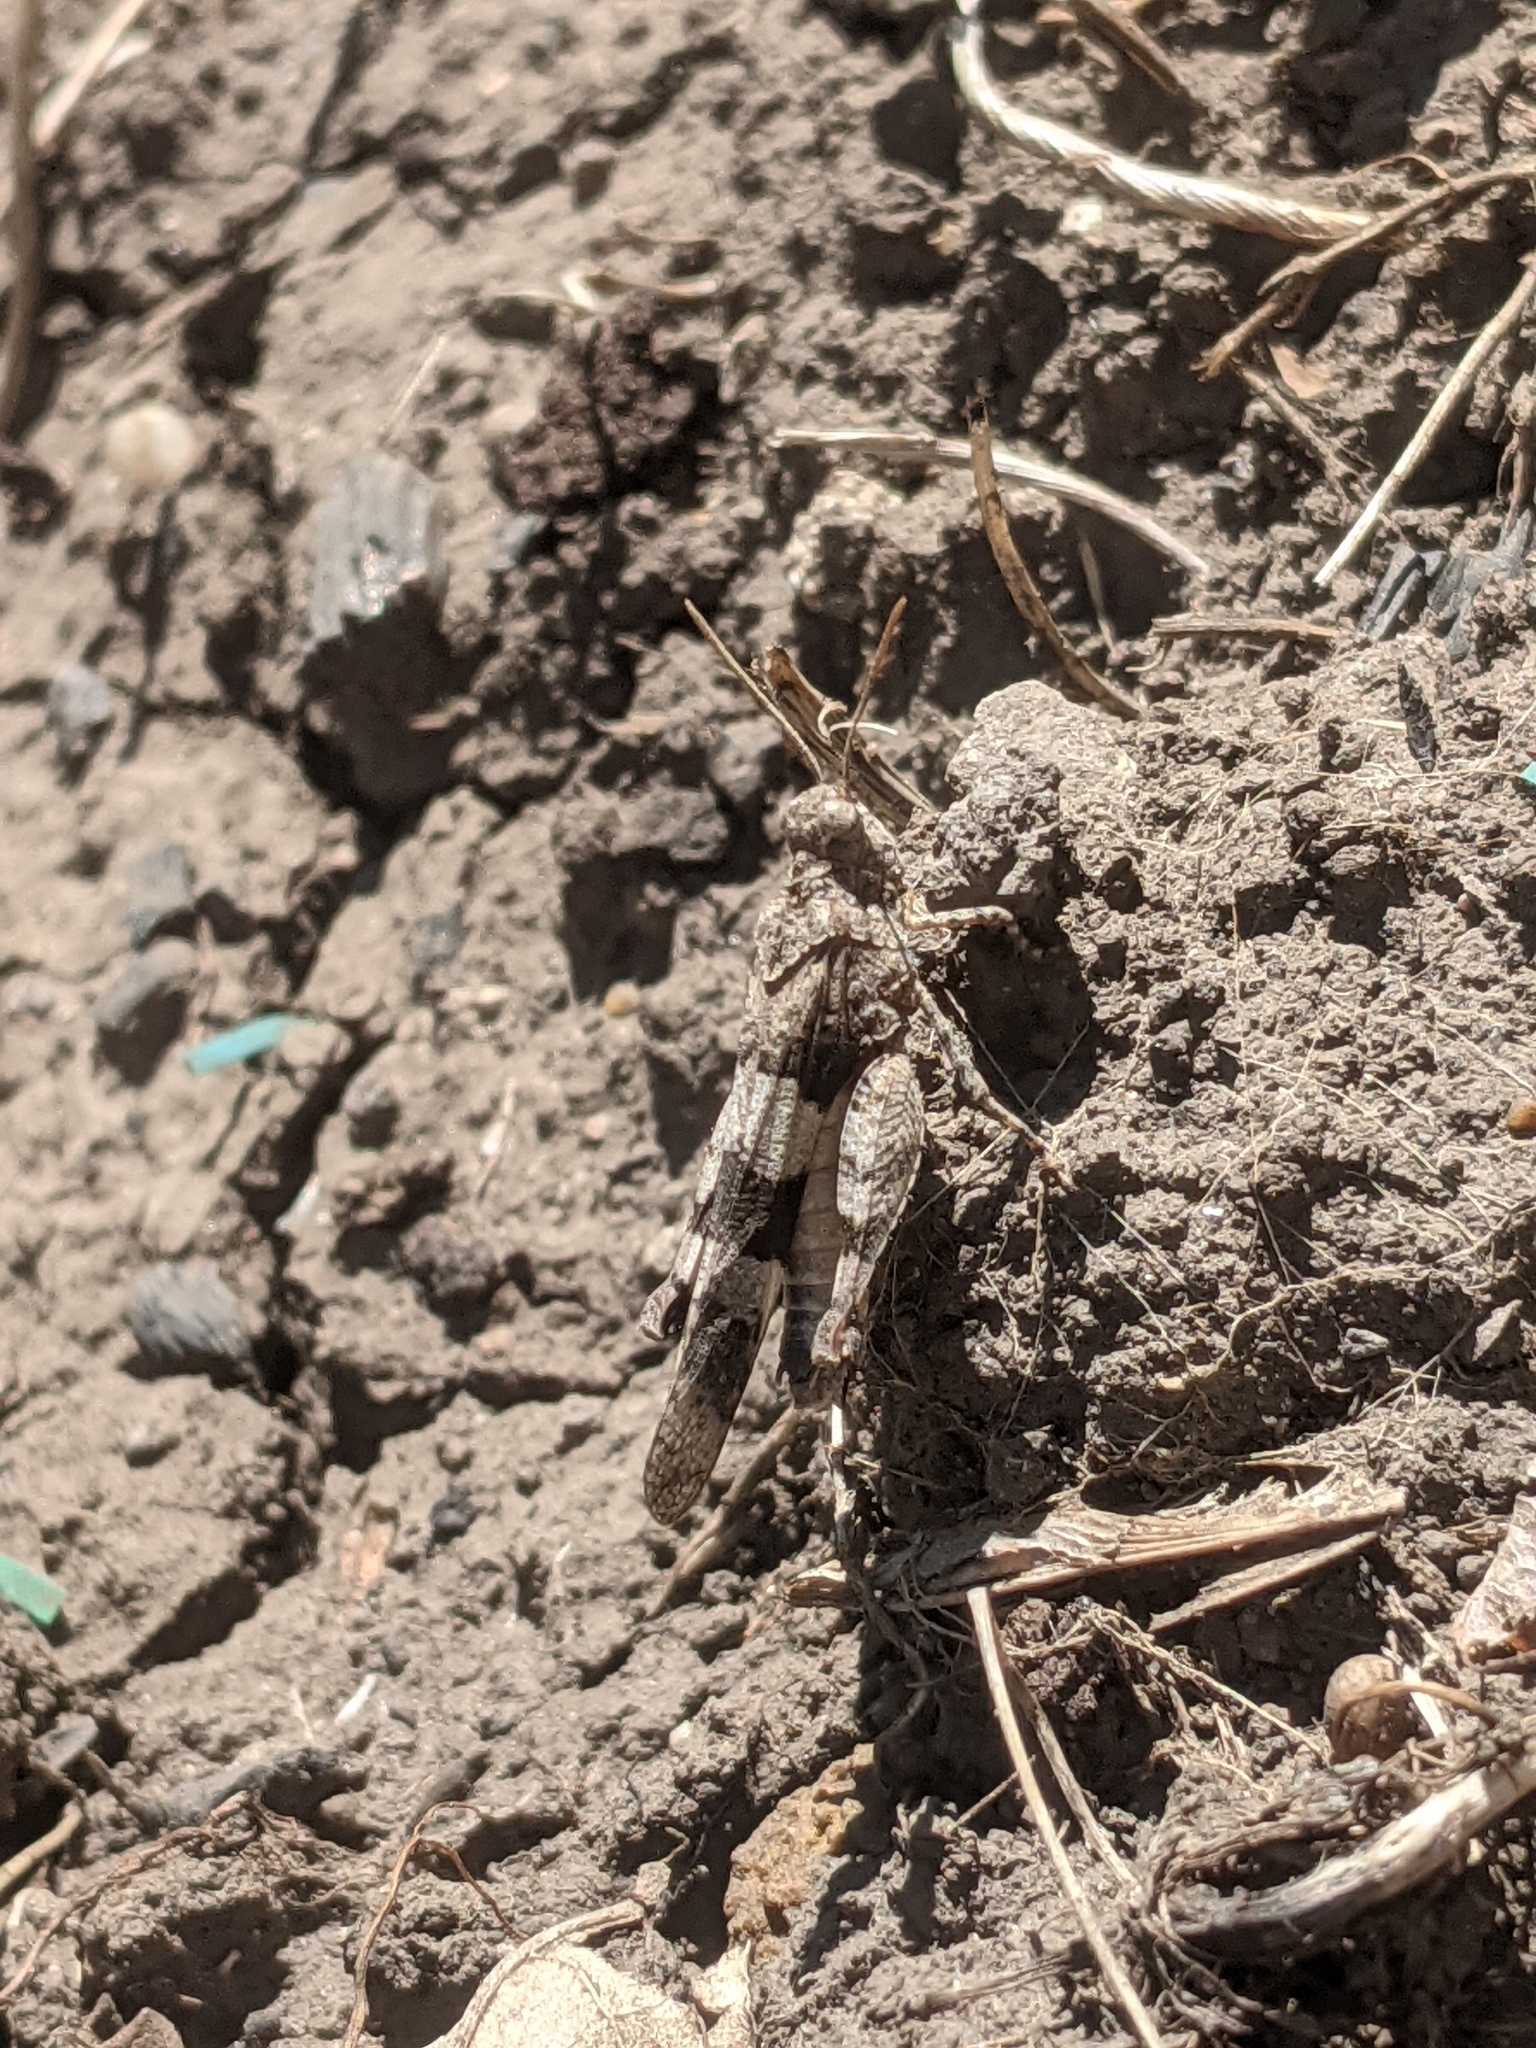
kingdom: Animalia
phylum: Arthropoda
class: Insecta
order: Orthoptera
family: Acrididae
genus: Oedipoda
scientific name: Oedipoda caerulescens
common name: Blue-winged grasshopper
